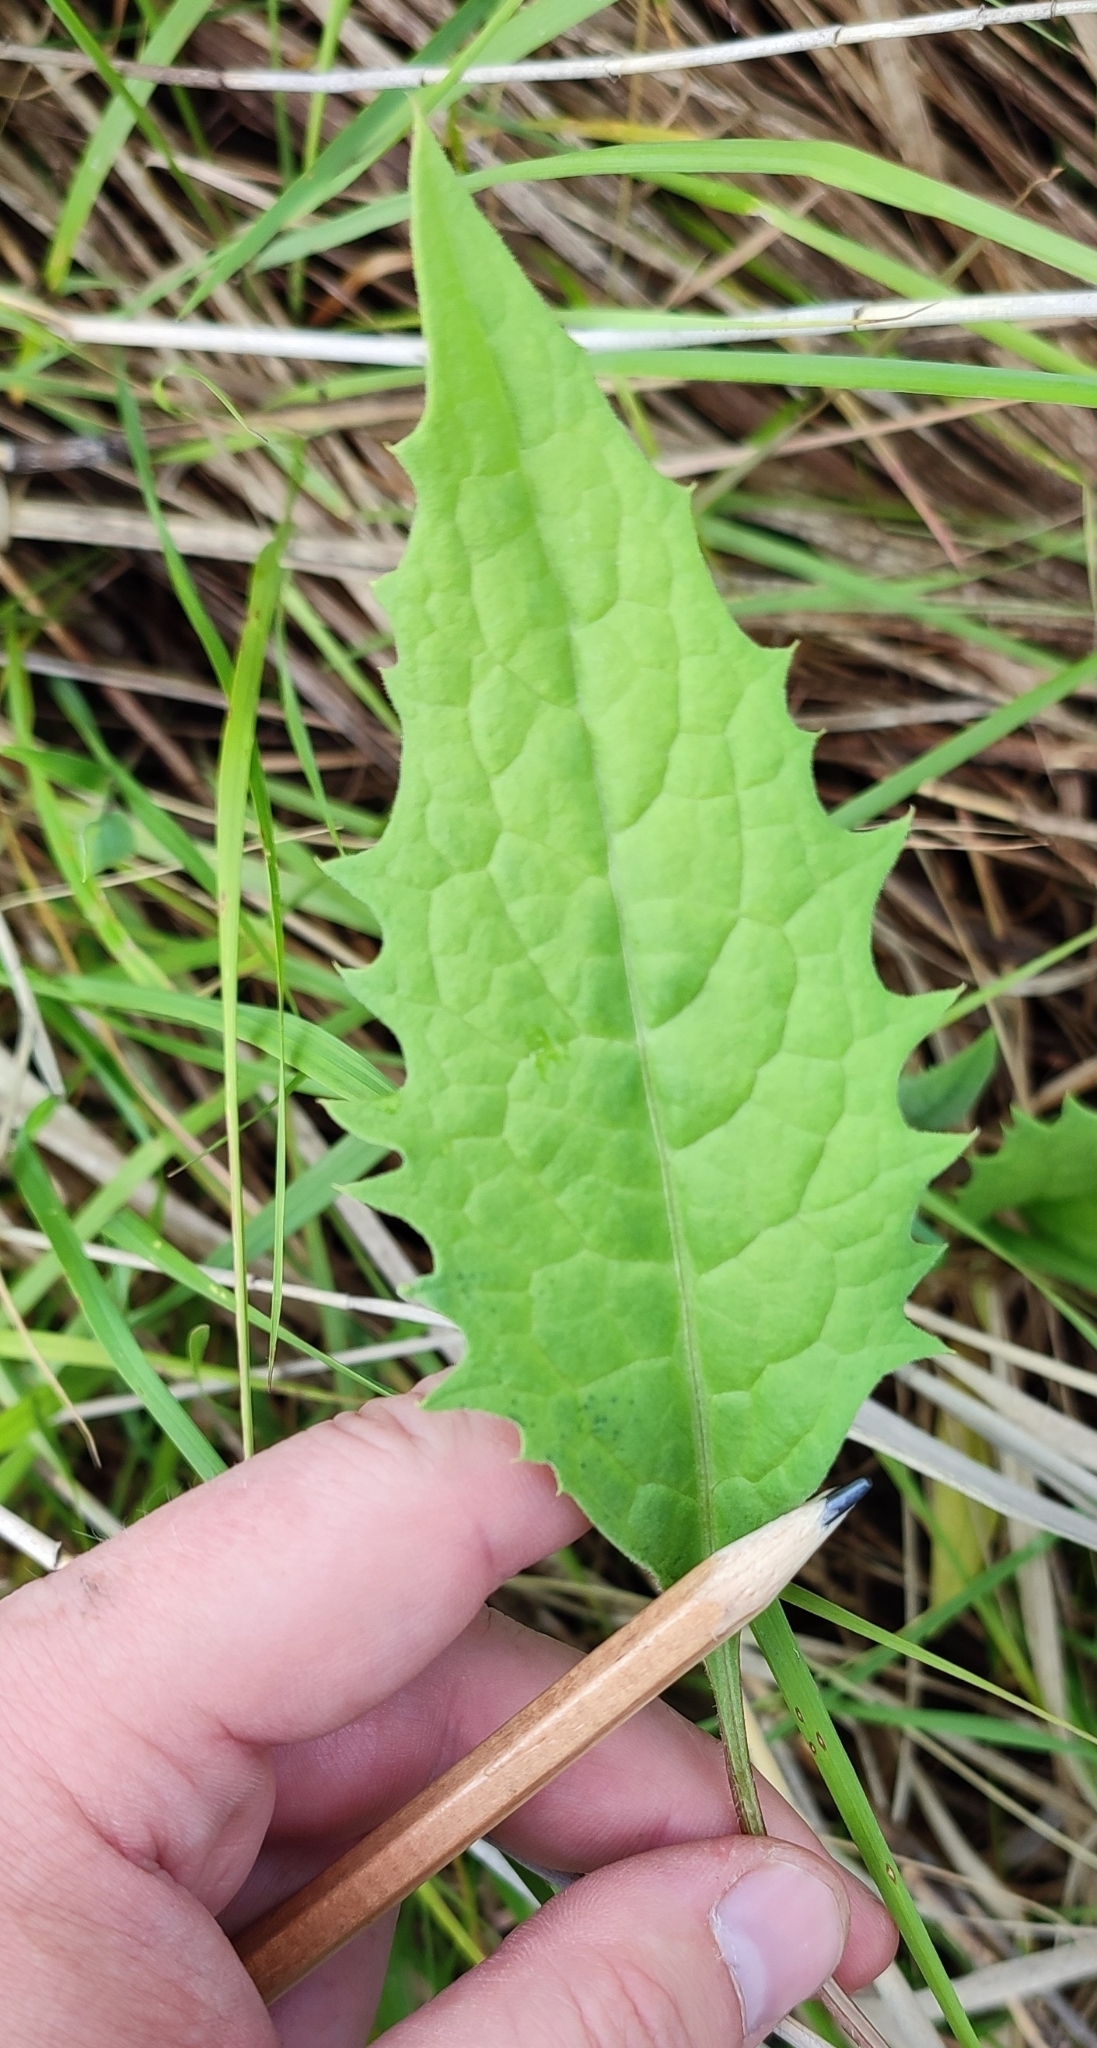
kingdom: Plantae
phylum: Tracheophyta
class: Magnoliopsida
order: Asterales
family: Asteraceae
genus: Saussurea
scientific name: Saussurea amara
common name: Alberta sawwort
